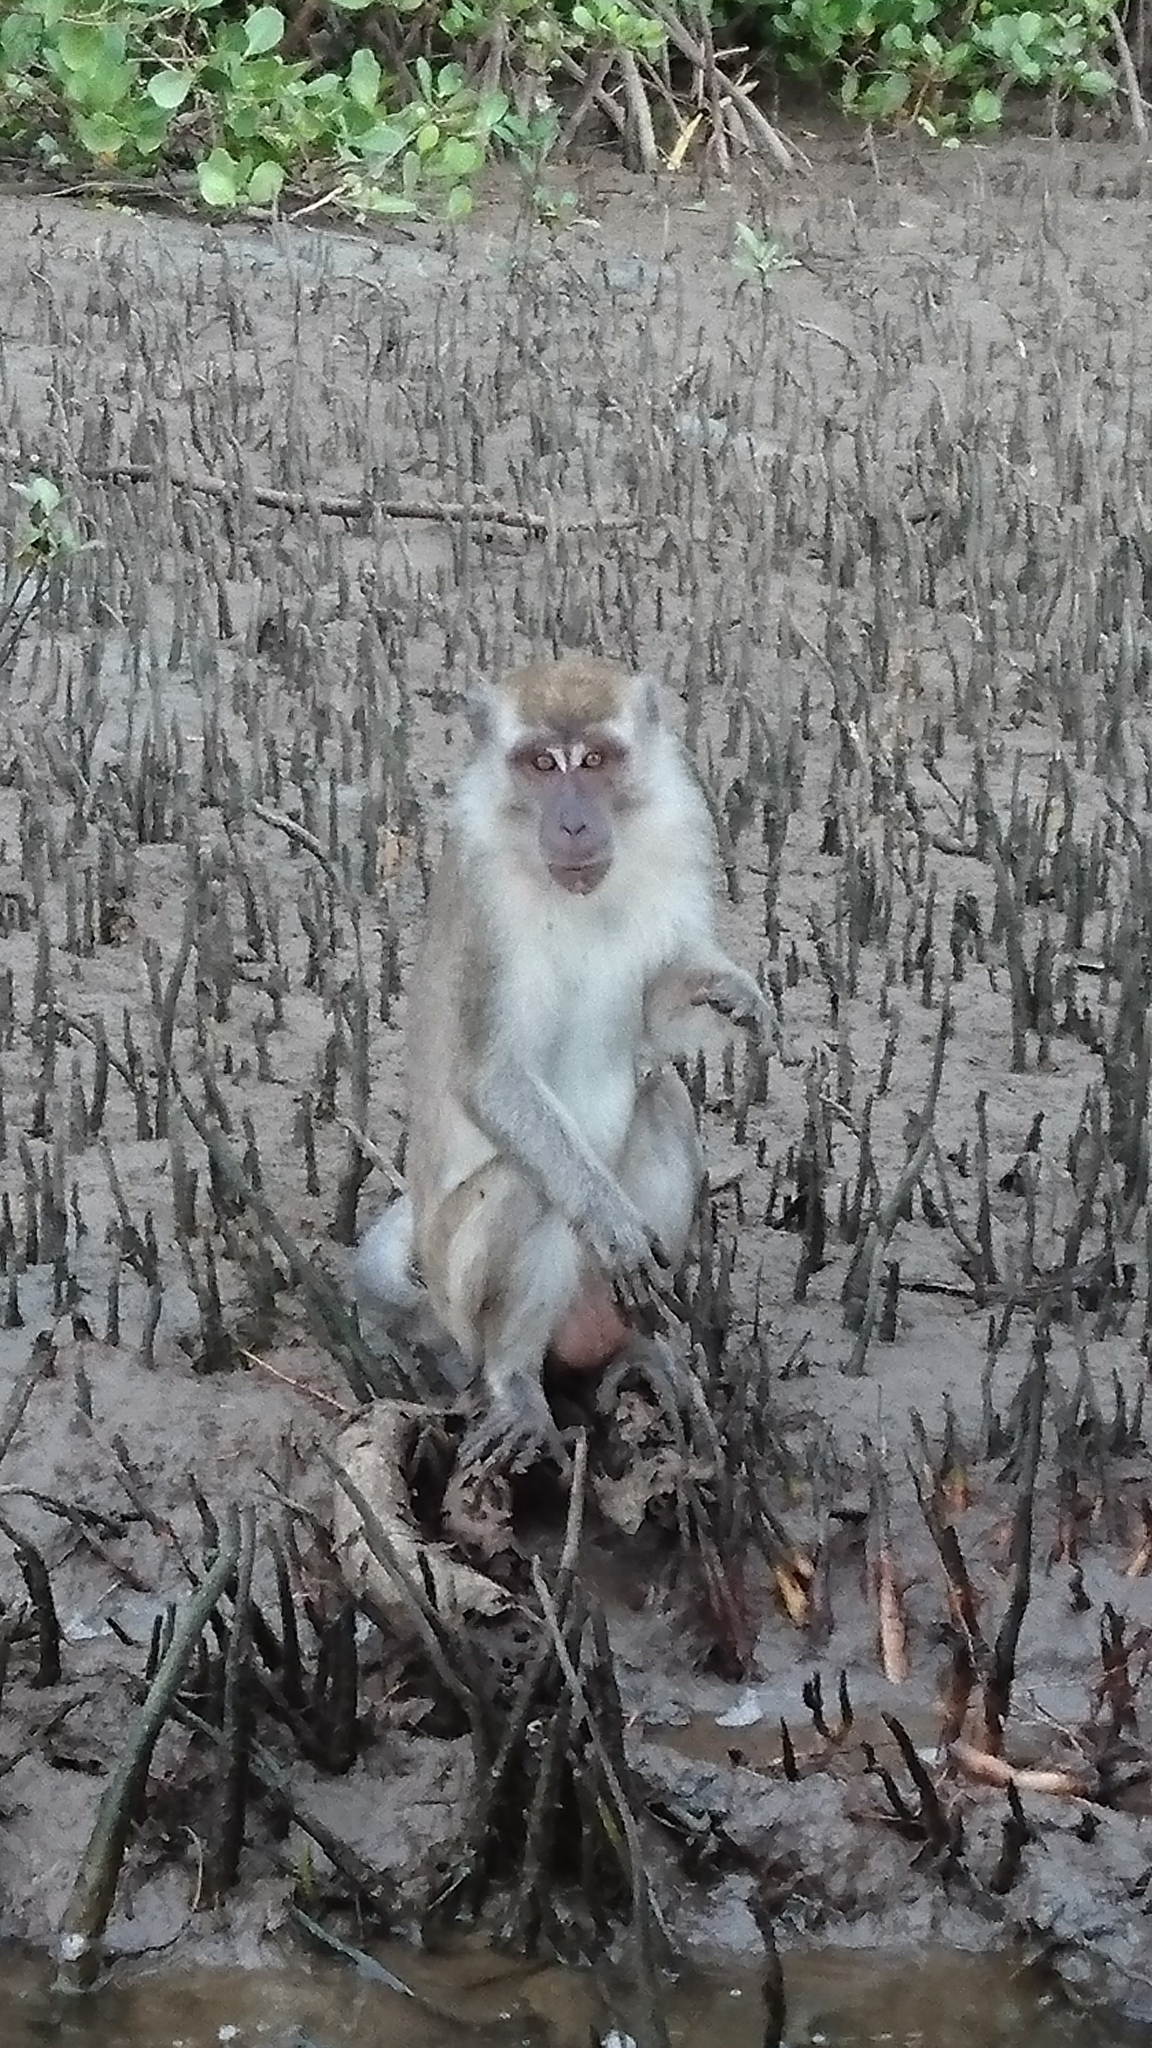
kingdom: Animalia
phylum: Chordata
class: Mammalia
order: Primates
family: Cercopithecidae
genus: Macaca
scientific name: Macaca fascicularis
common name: Crab-eating macaque
